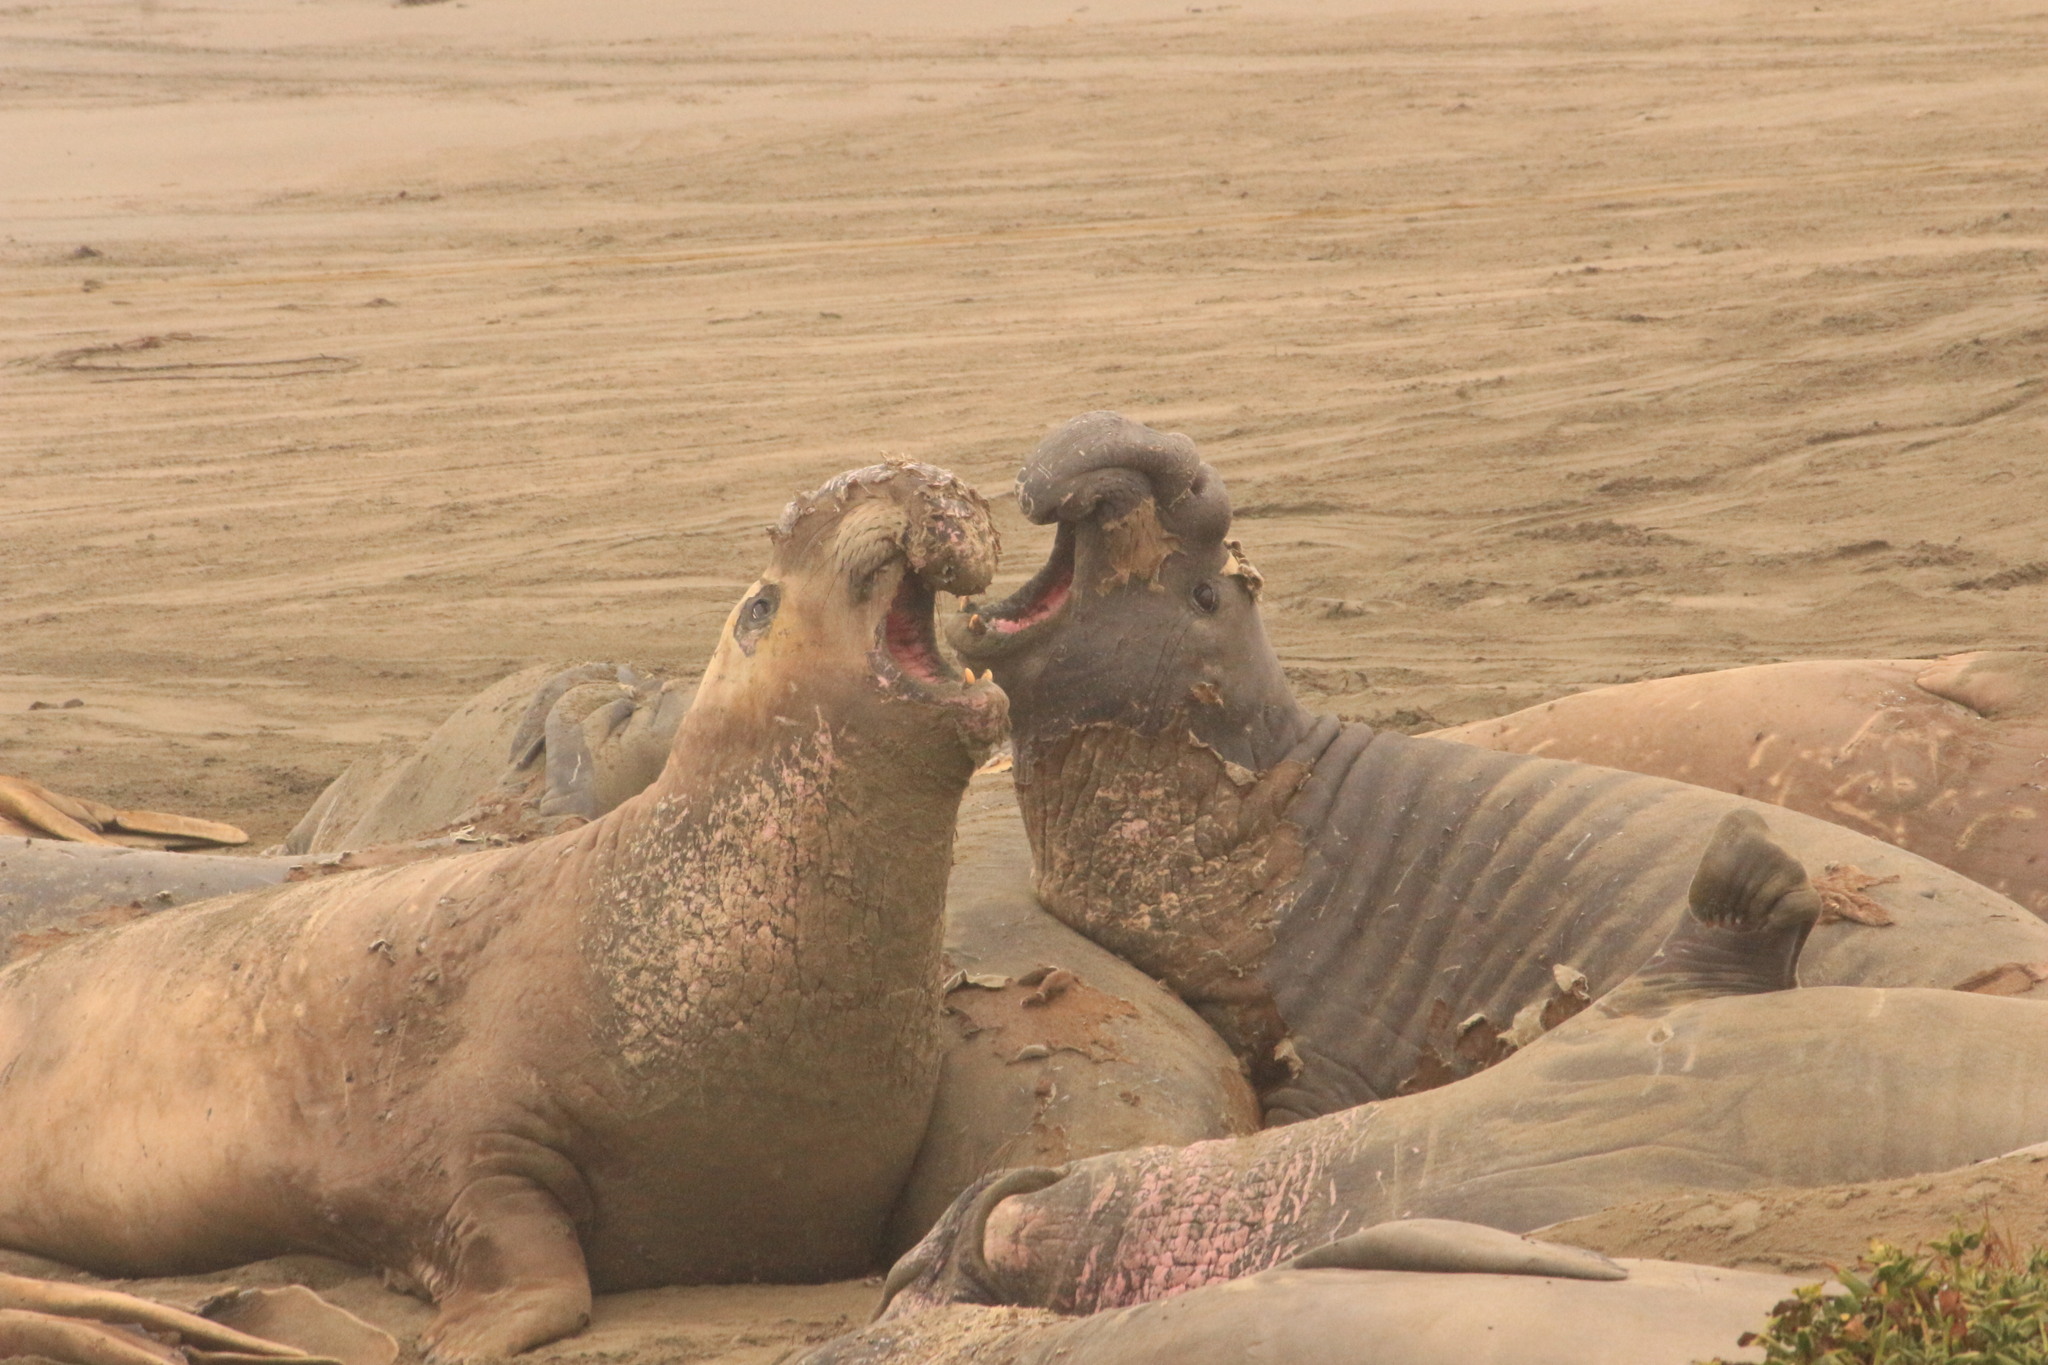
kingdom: Animalia
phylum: Chordata
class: Mammalia
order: Carnivora
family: Phocidae
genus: Mirounga
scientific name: Mirounga angustirostris
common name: Northern elephant seal
